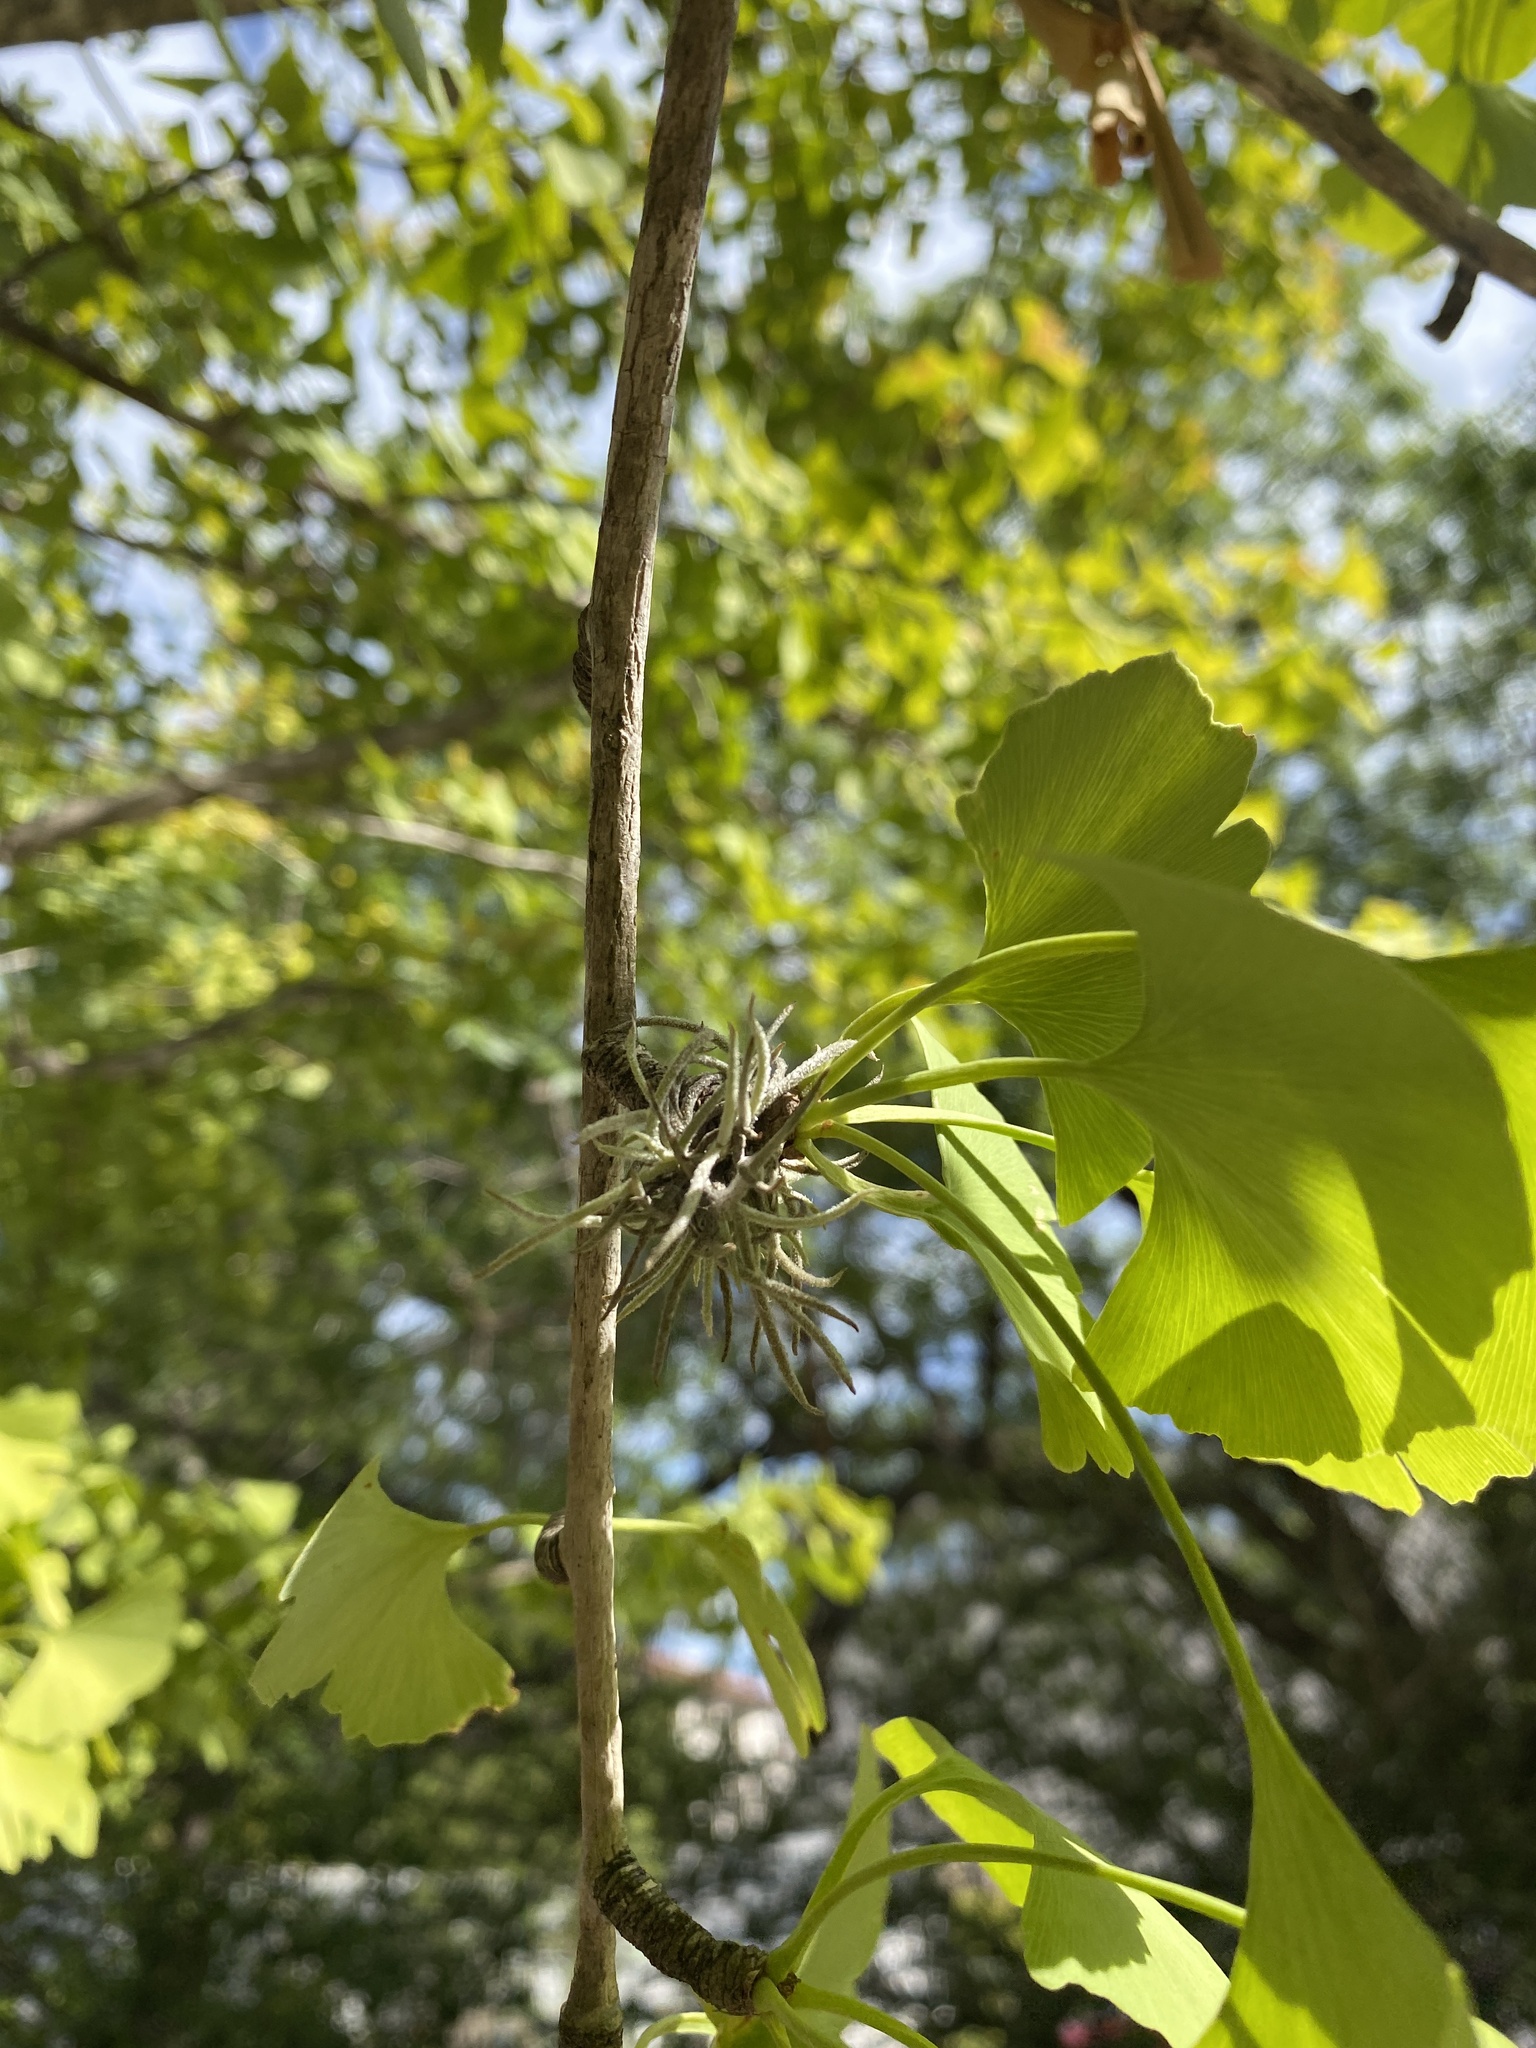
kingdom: Plantae
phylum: Tracheophyta
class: Liliopsida
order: Poales
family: Bromeliaceae
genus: Tillandsia
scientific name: Tillandsia recurvata
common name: Small ballmoss
